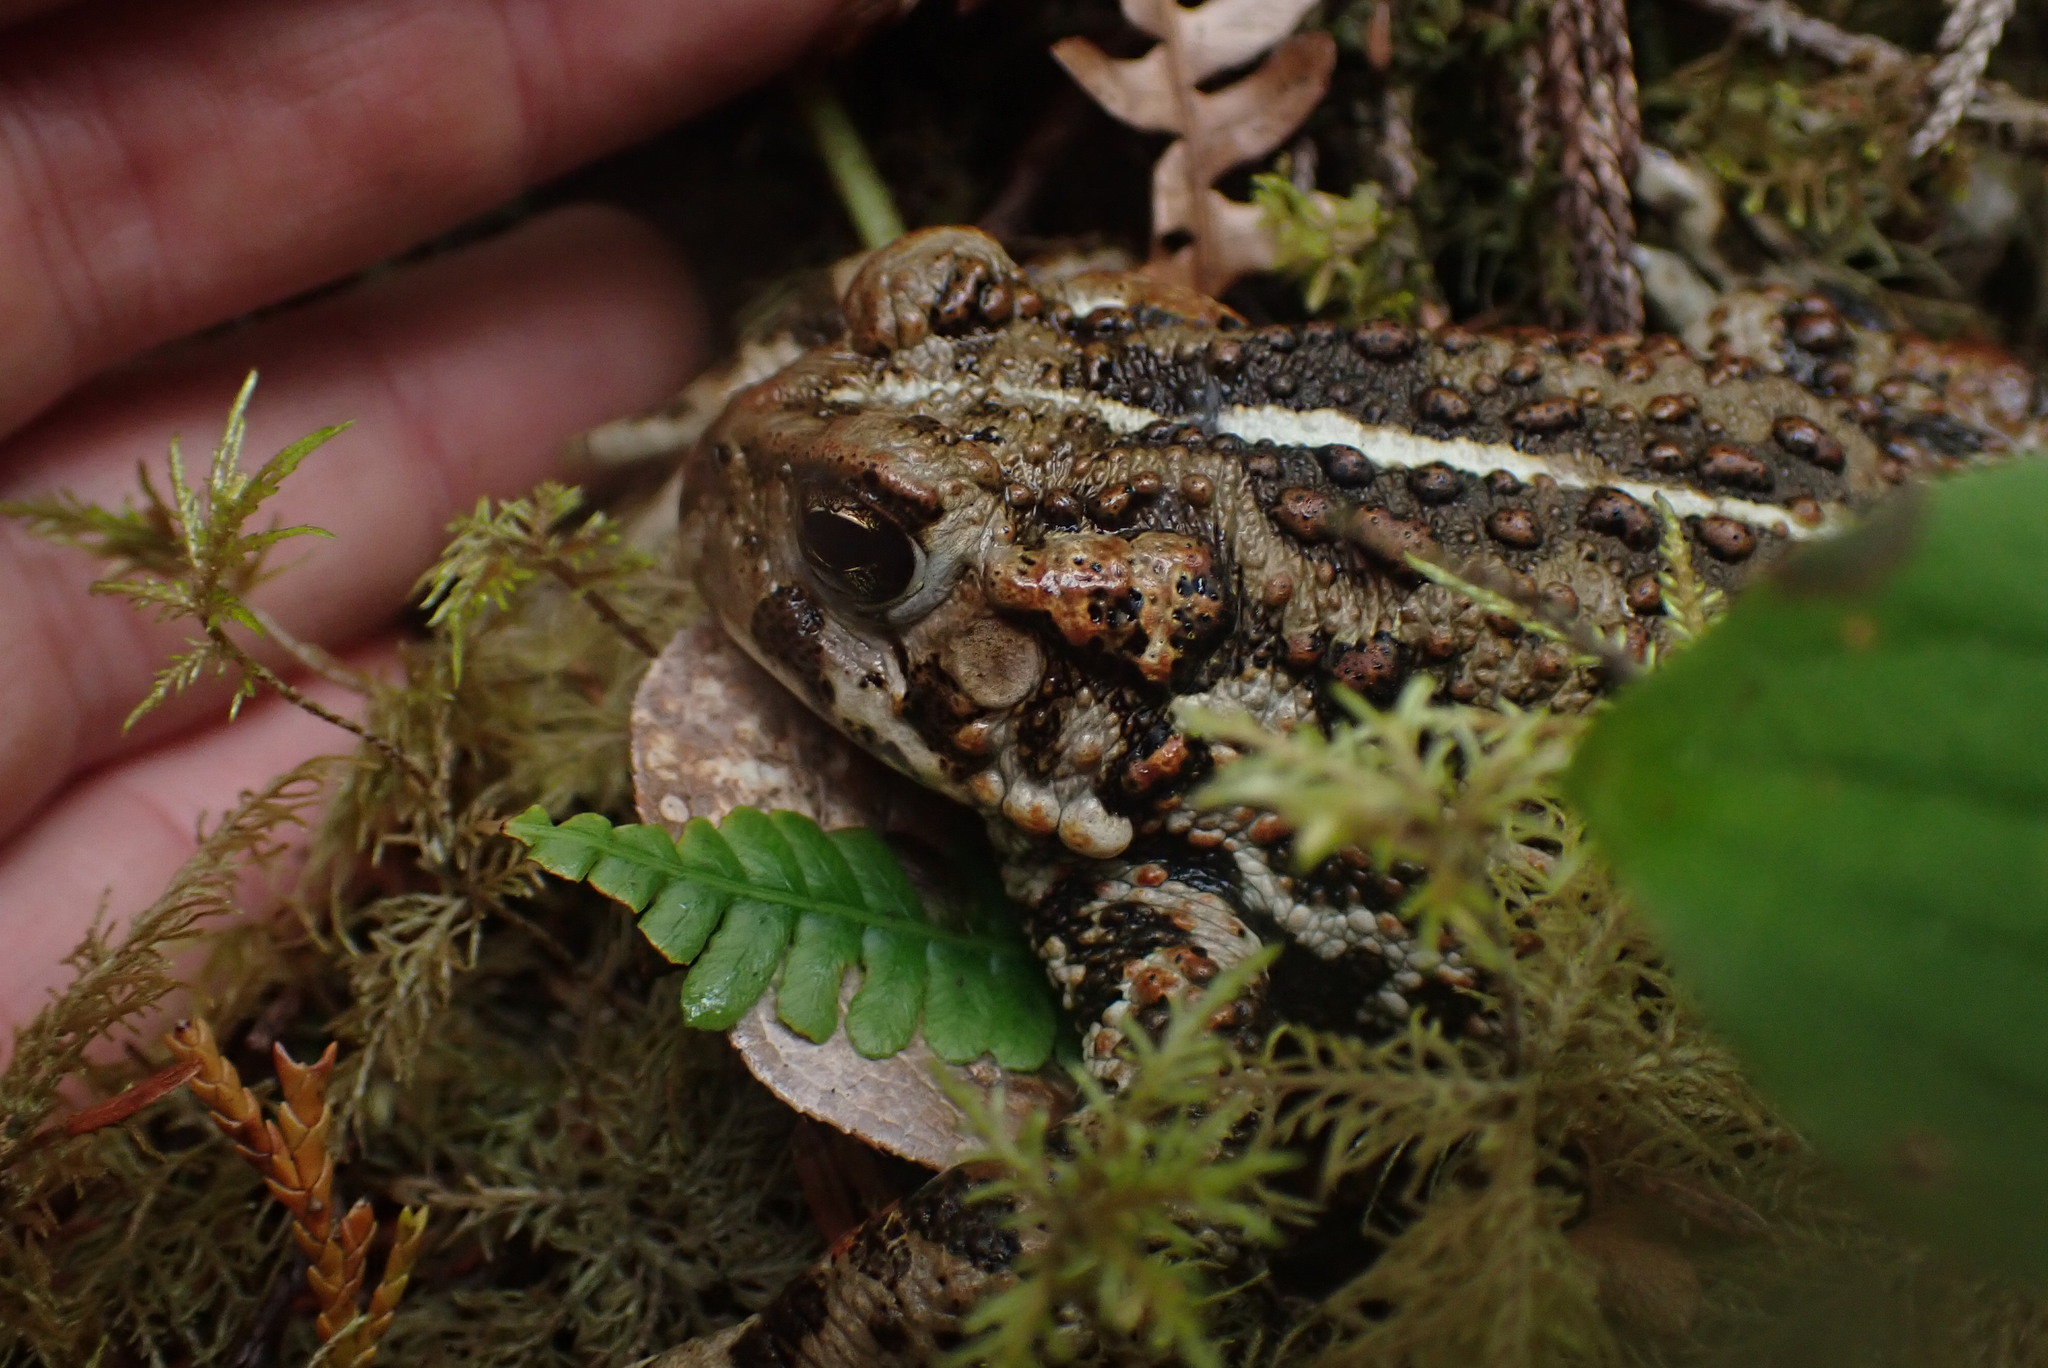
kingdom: Animalia
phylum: Chordata
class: Amphibia
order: Anura
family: Bufonidae
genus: Anaxyrus
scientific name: Anaxyrus boreas
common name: Western toad
